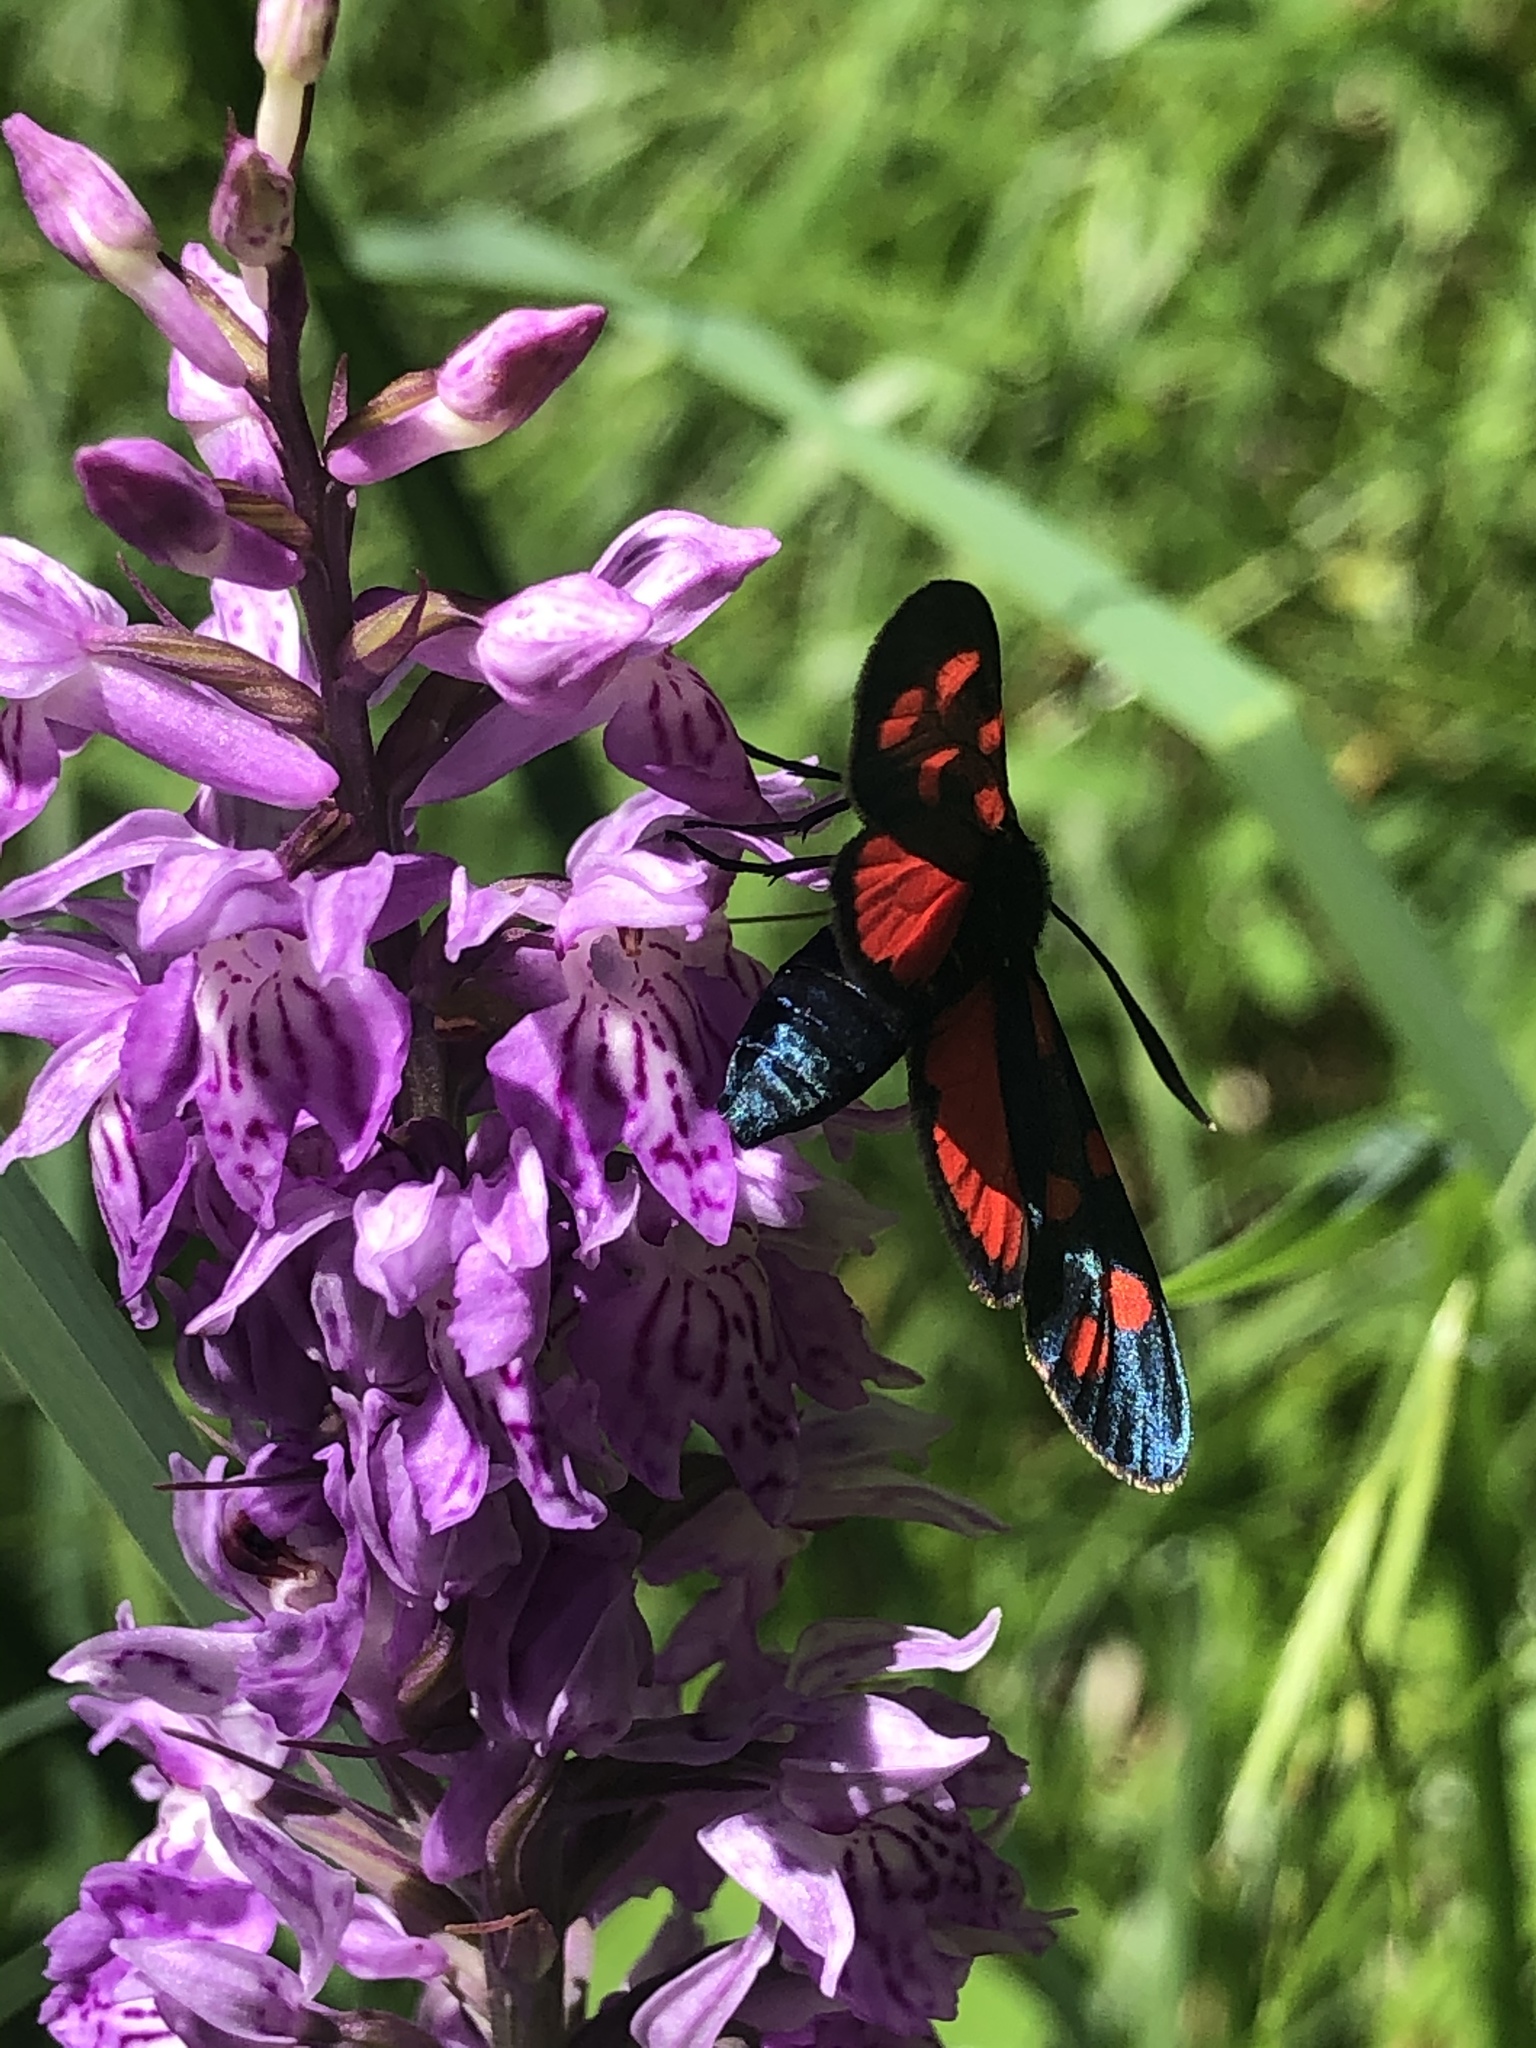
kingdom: Animalia
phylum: Arthropoda
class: Insecta
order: Lepidoptera
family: Zygaenidae
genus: Zygaena
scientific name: Zygaena transalpina
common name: Southern six spot burnet
